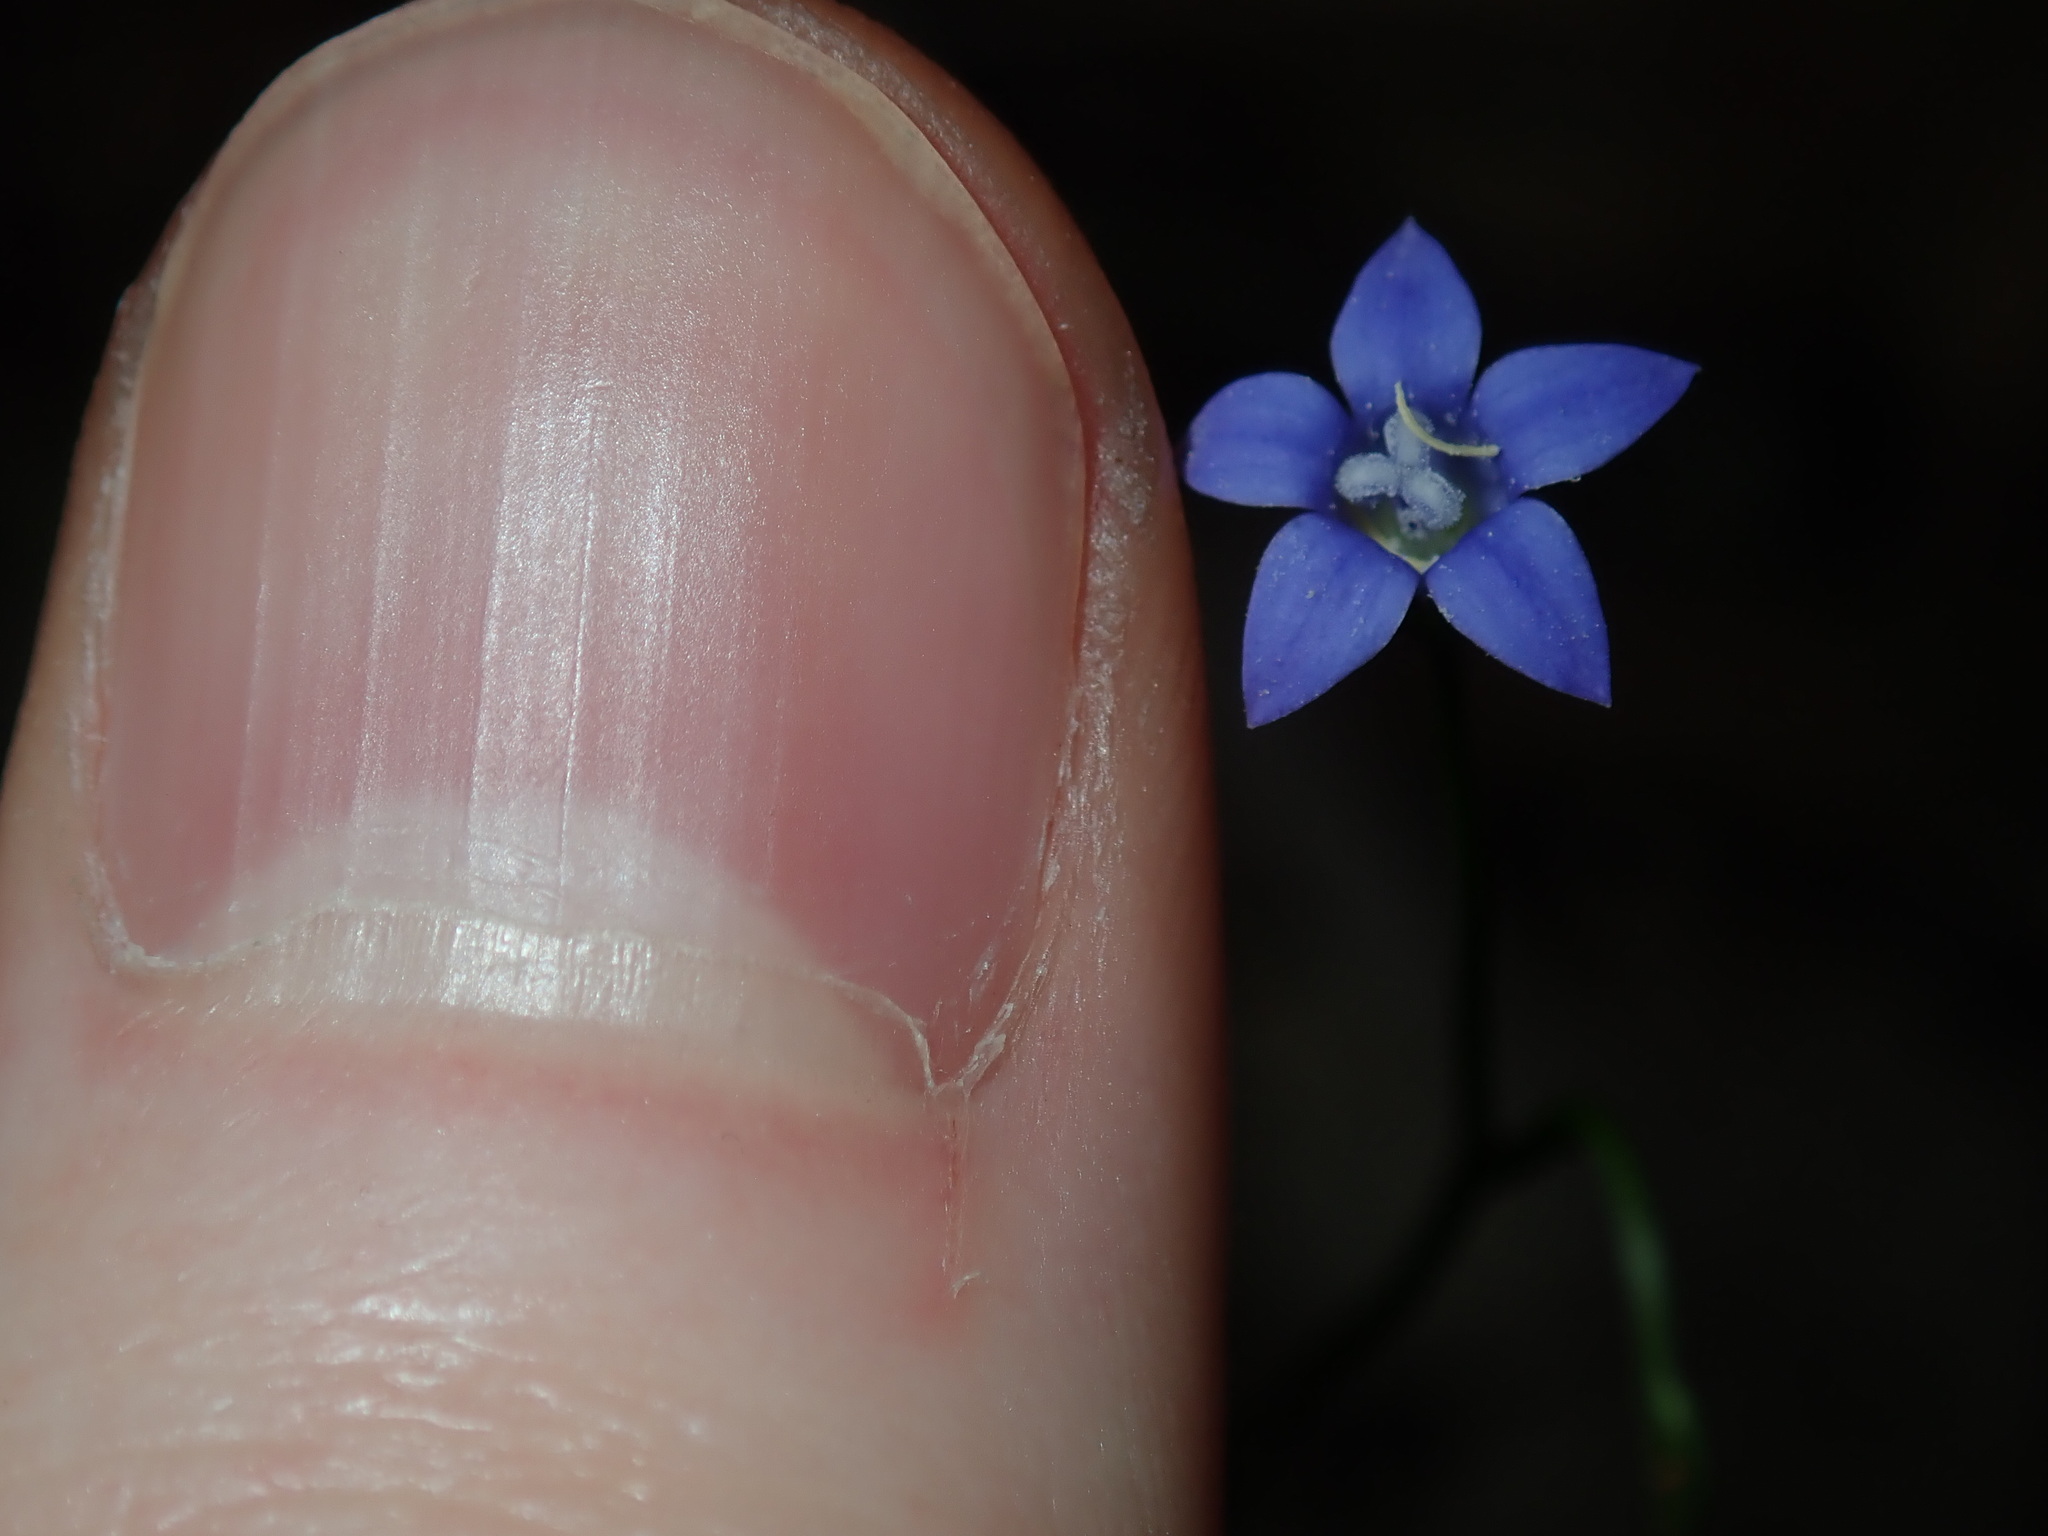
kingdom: Plantae
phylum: Tracheophyta
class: Magnoliopsida
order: Asterales
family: Campanulaceae
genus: Wahlenbergia
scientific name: Wahlenbergia gracilis
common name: Harebell
